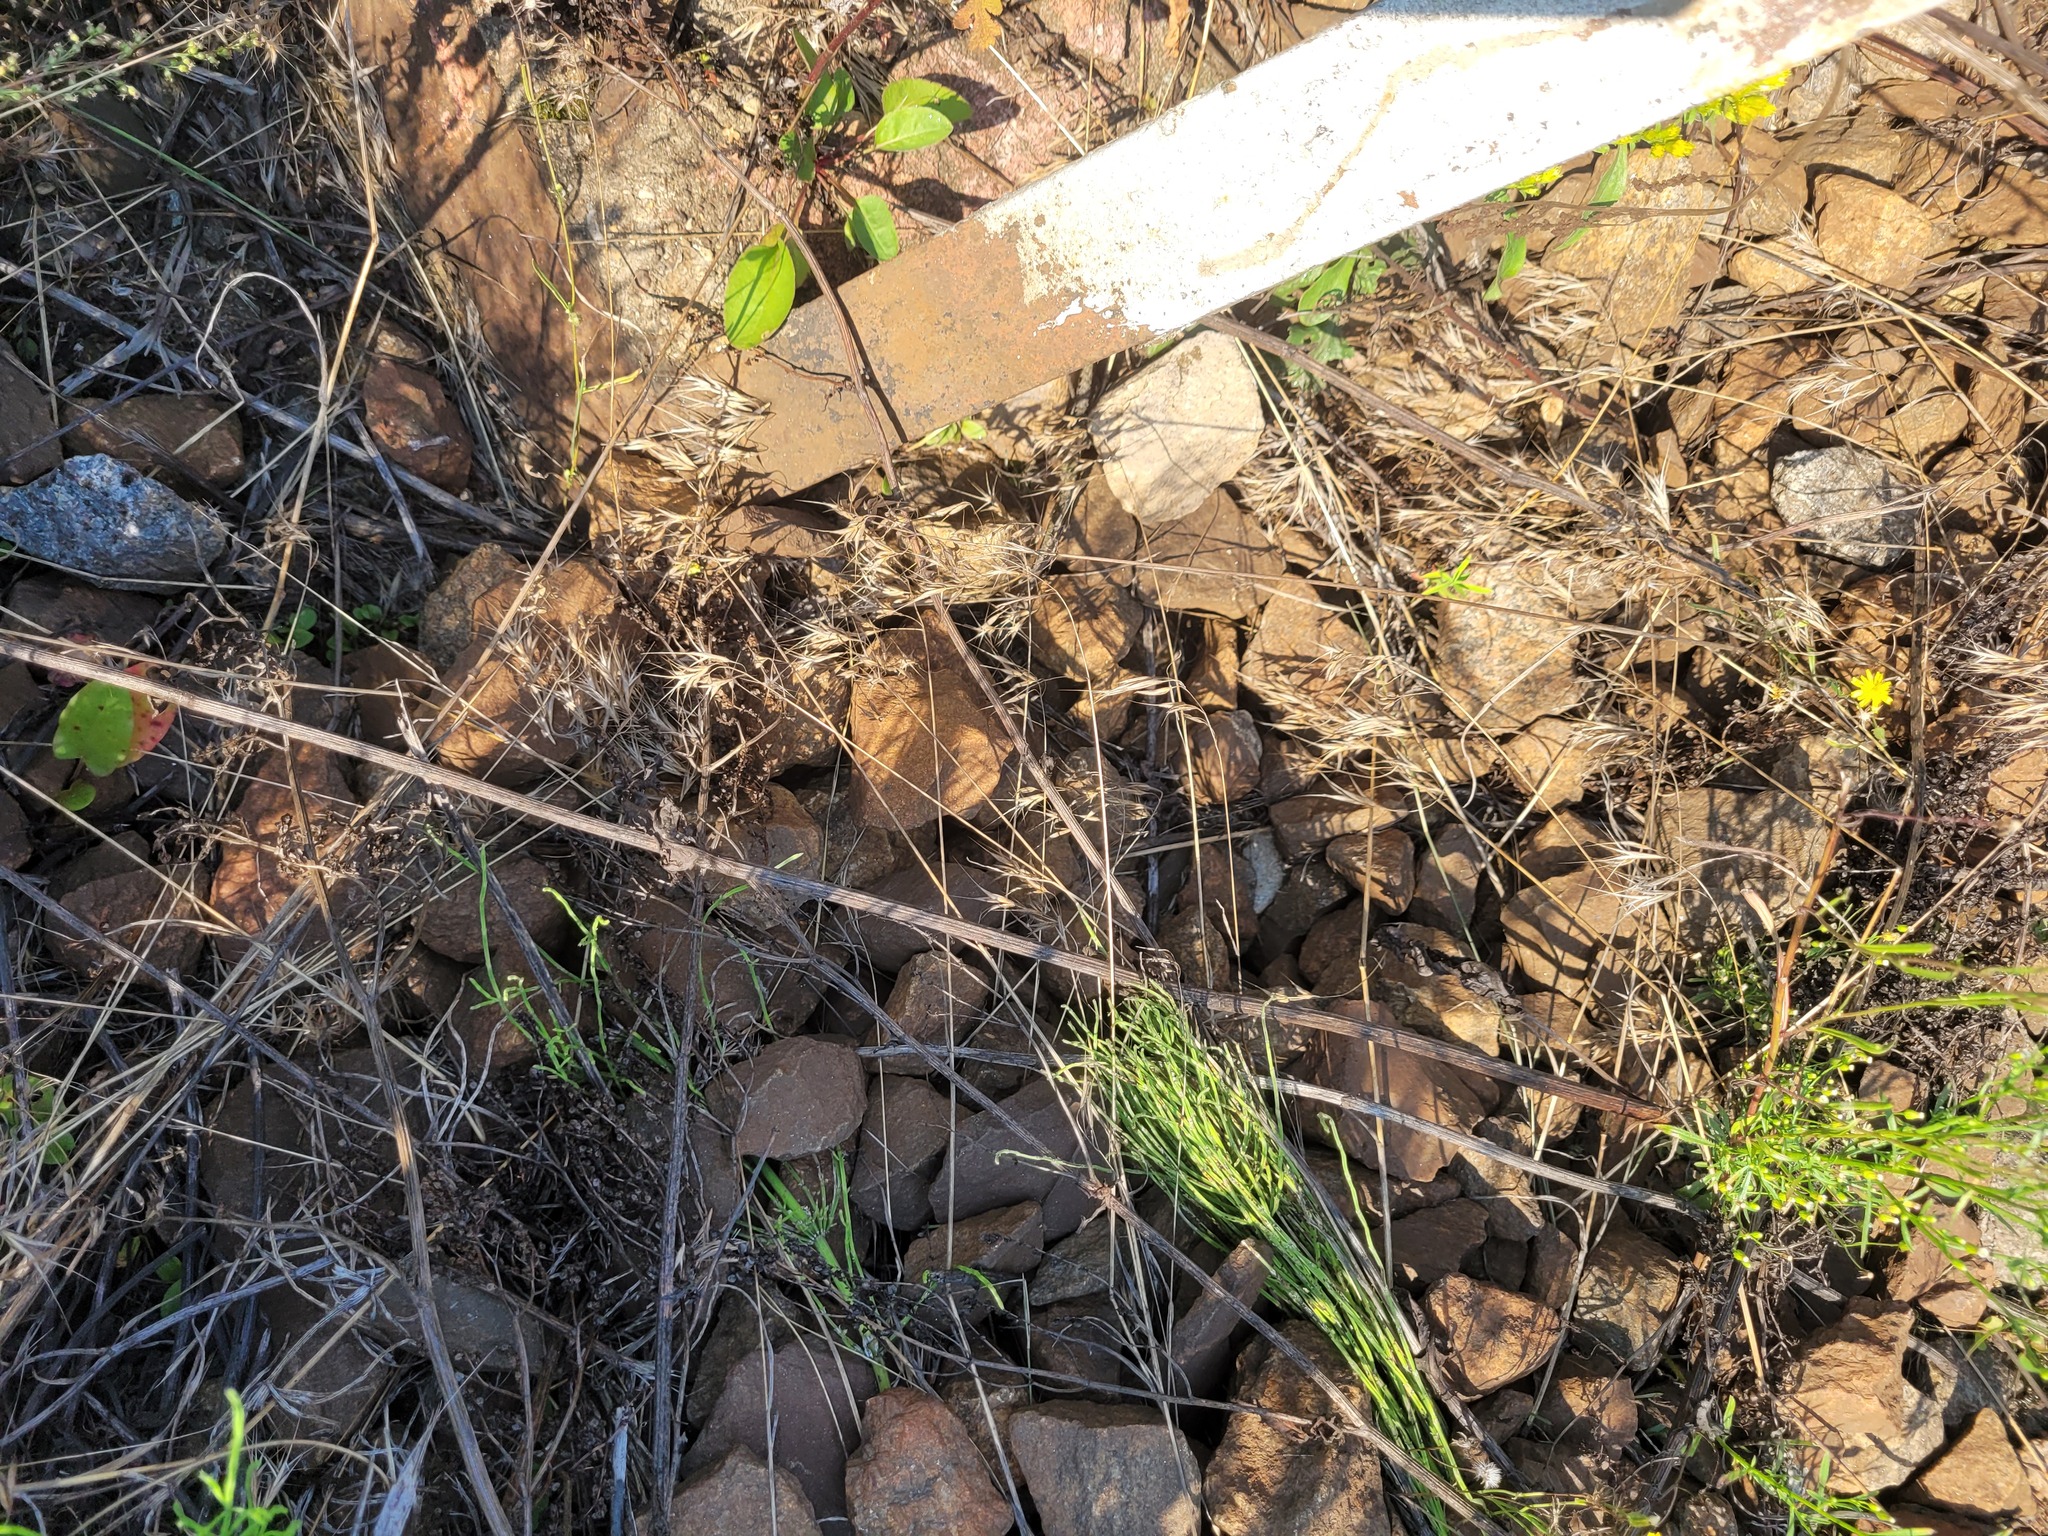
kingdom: Plantae
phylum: Tracheophyta
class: Liliopsida
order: Poales
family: Poaceae
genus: Bromus
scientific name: Bromus tectorum
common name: Cheatgrass
